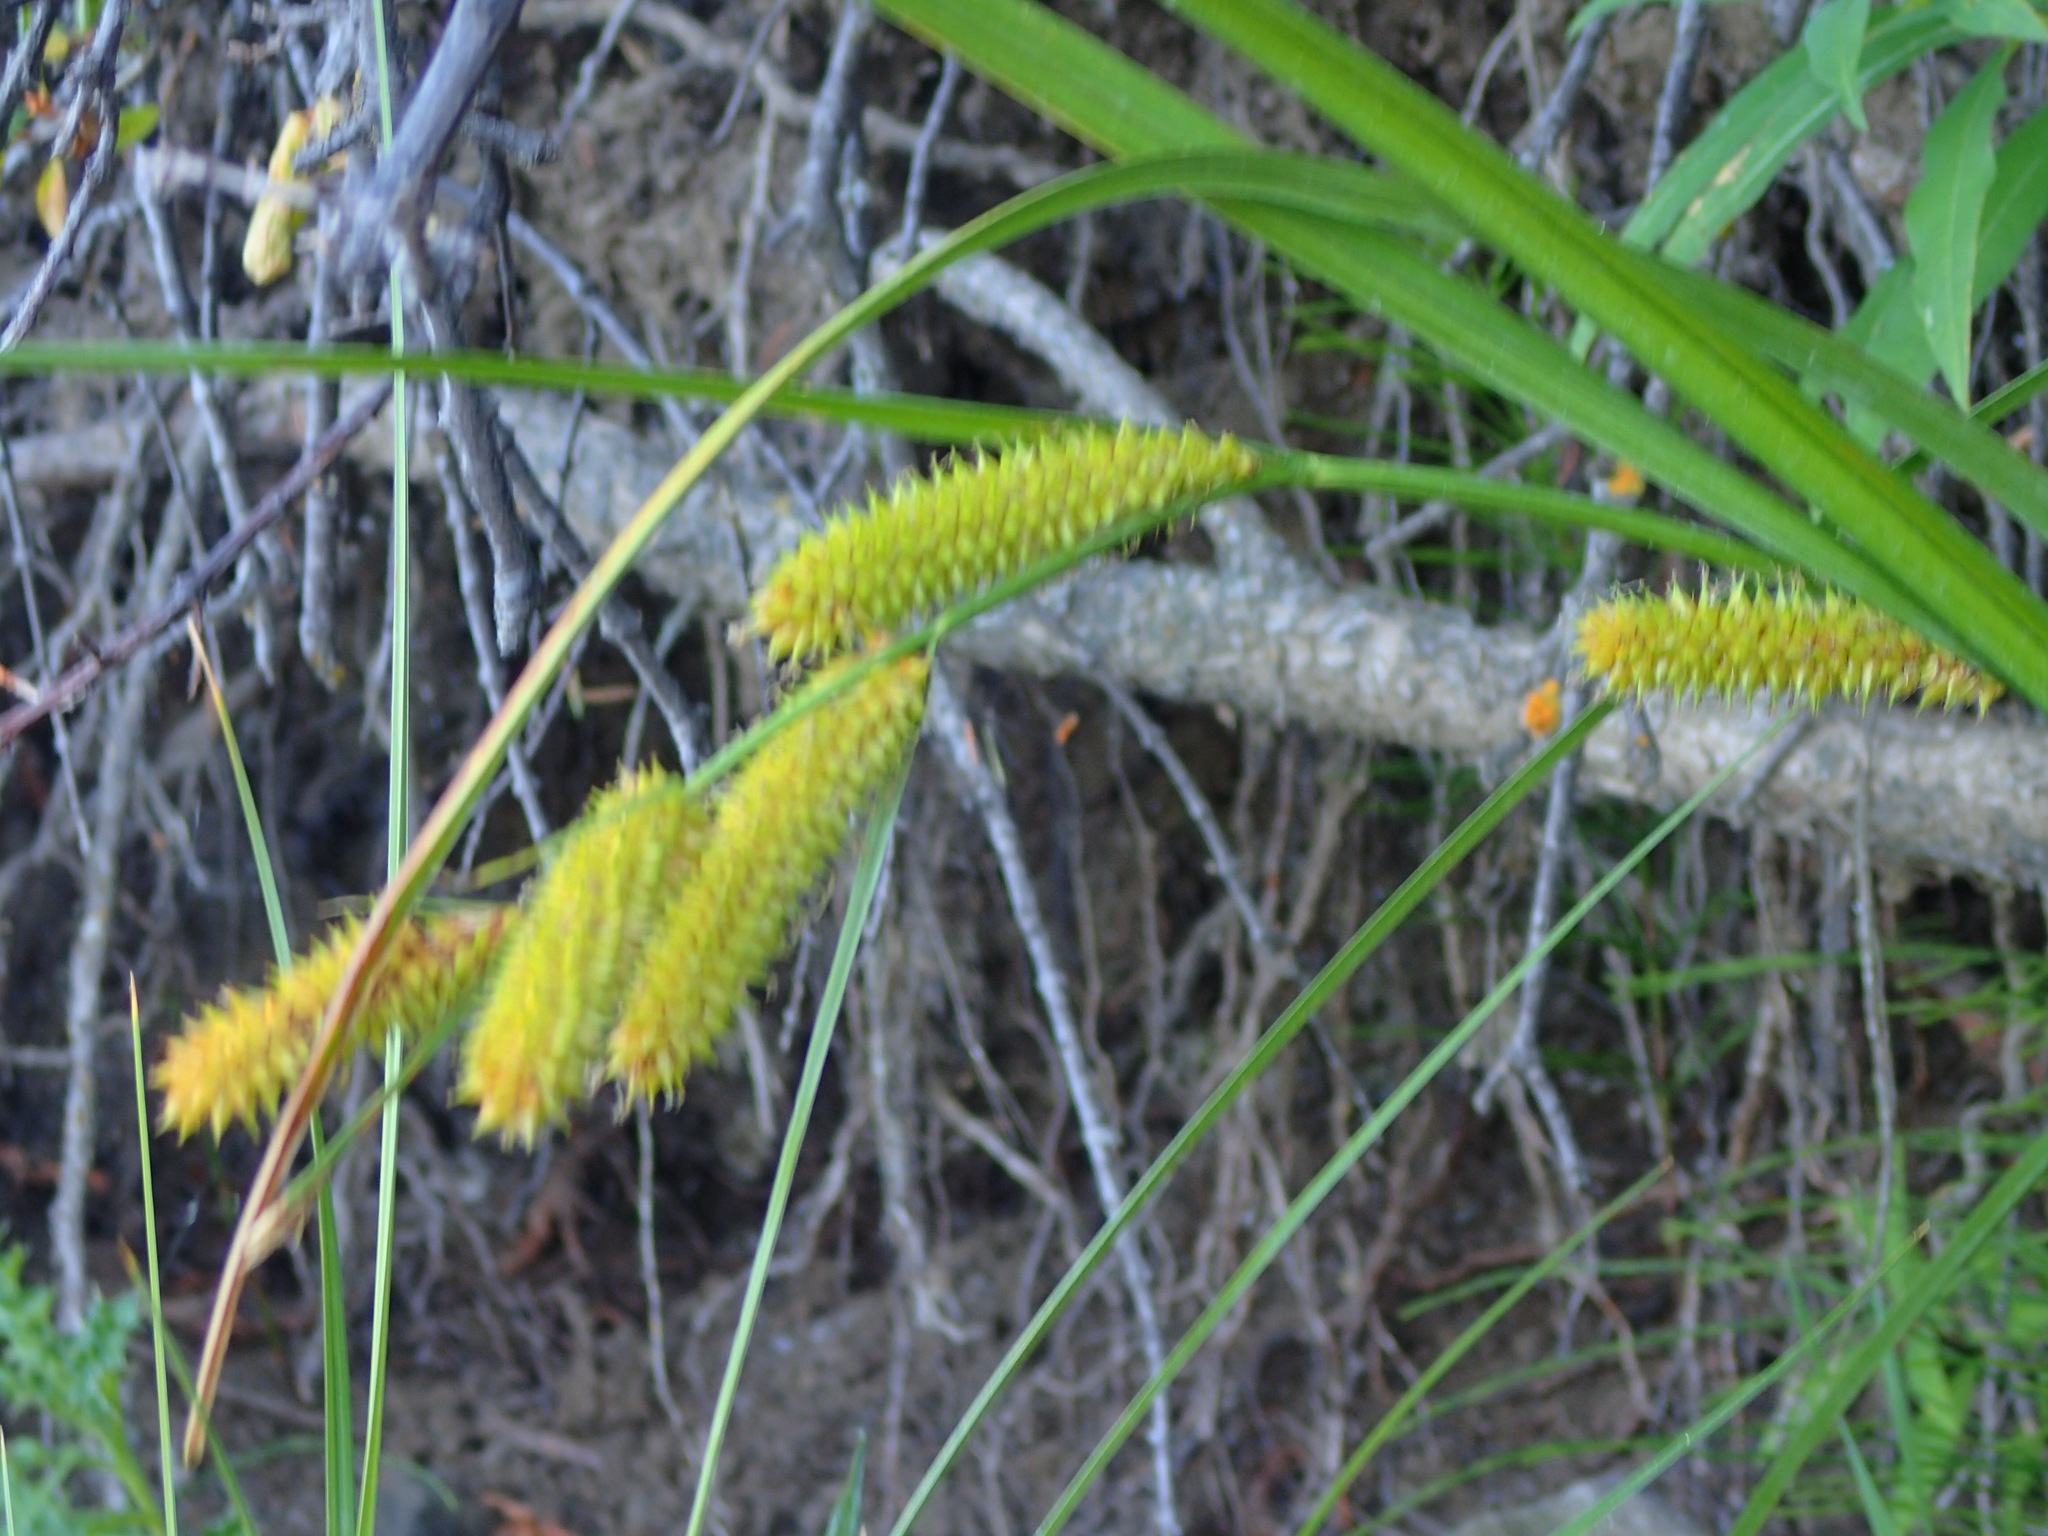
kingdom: Plantae
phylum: Tracheophyta
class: Liliopsida
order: Poales
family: Cyperaceae
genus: Carex
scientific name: Carex utriculata
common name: Beaked sedge
